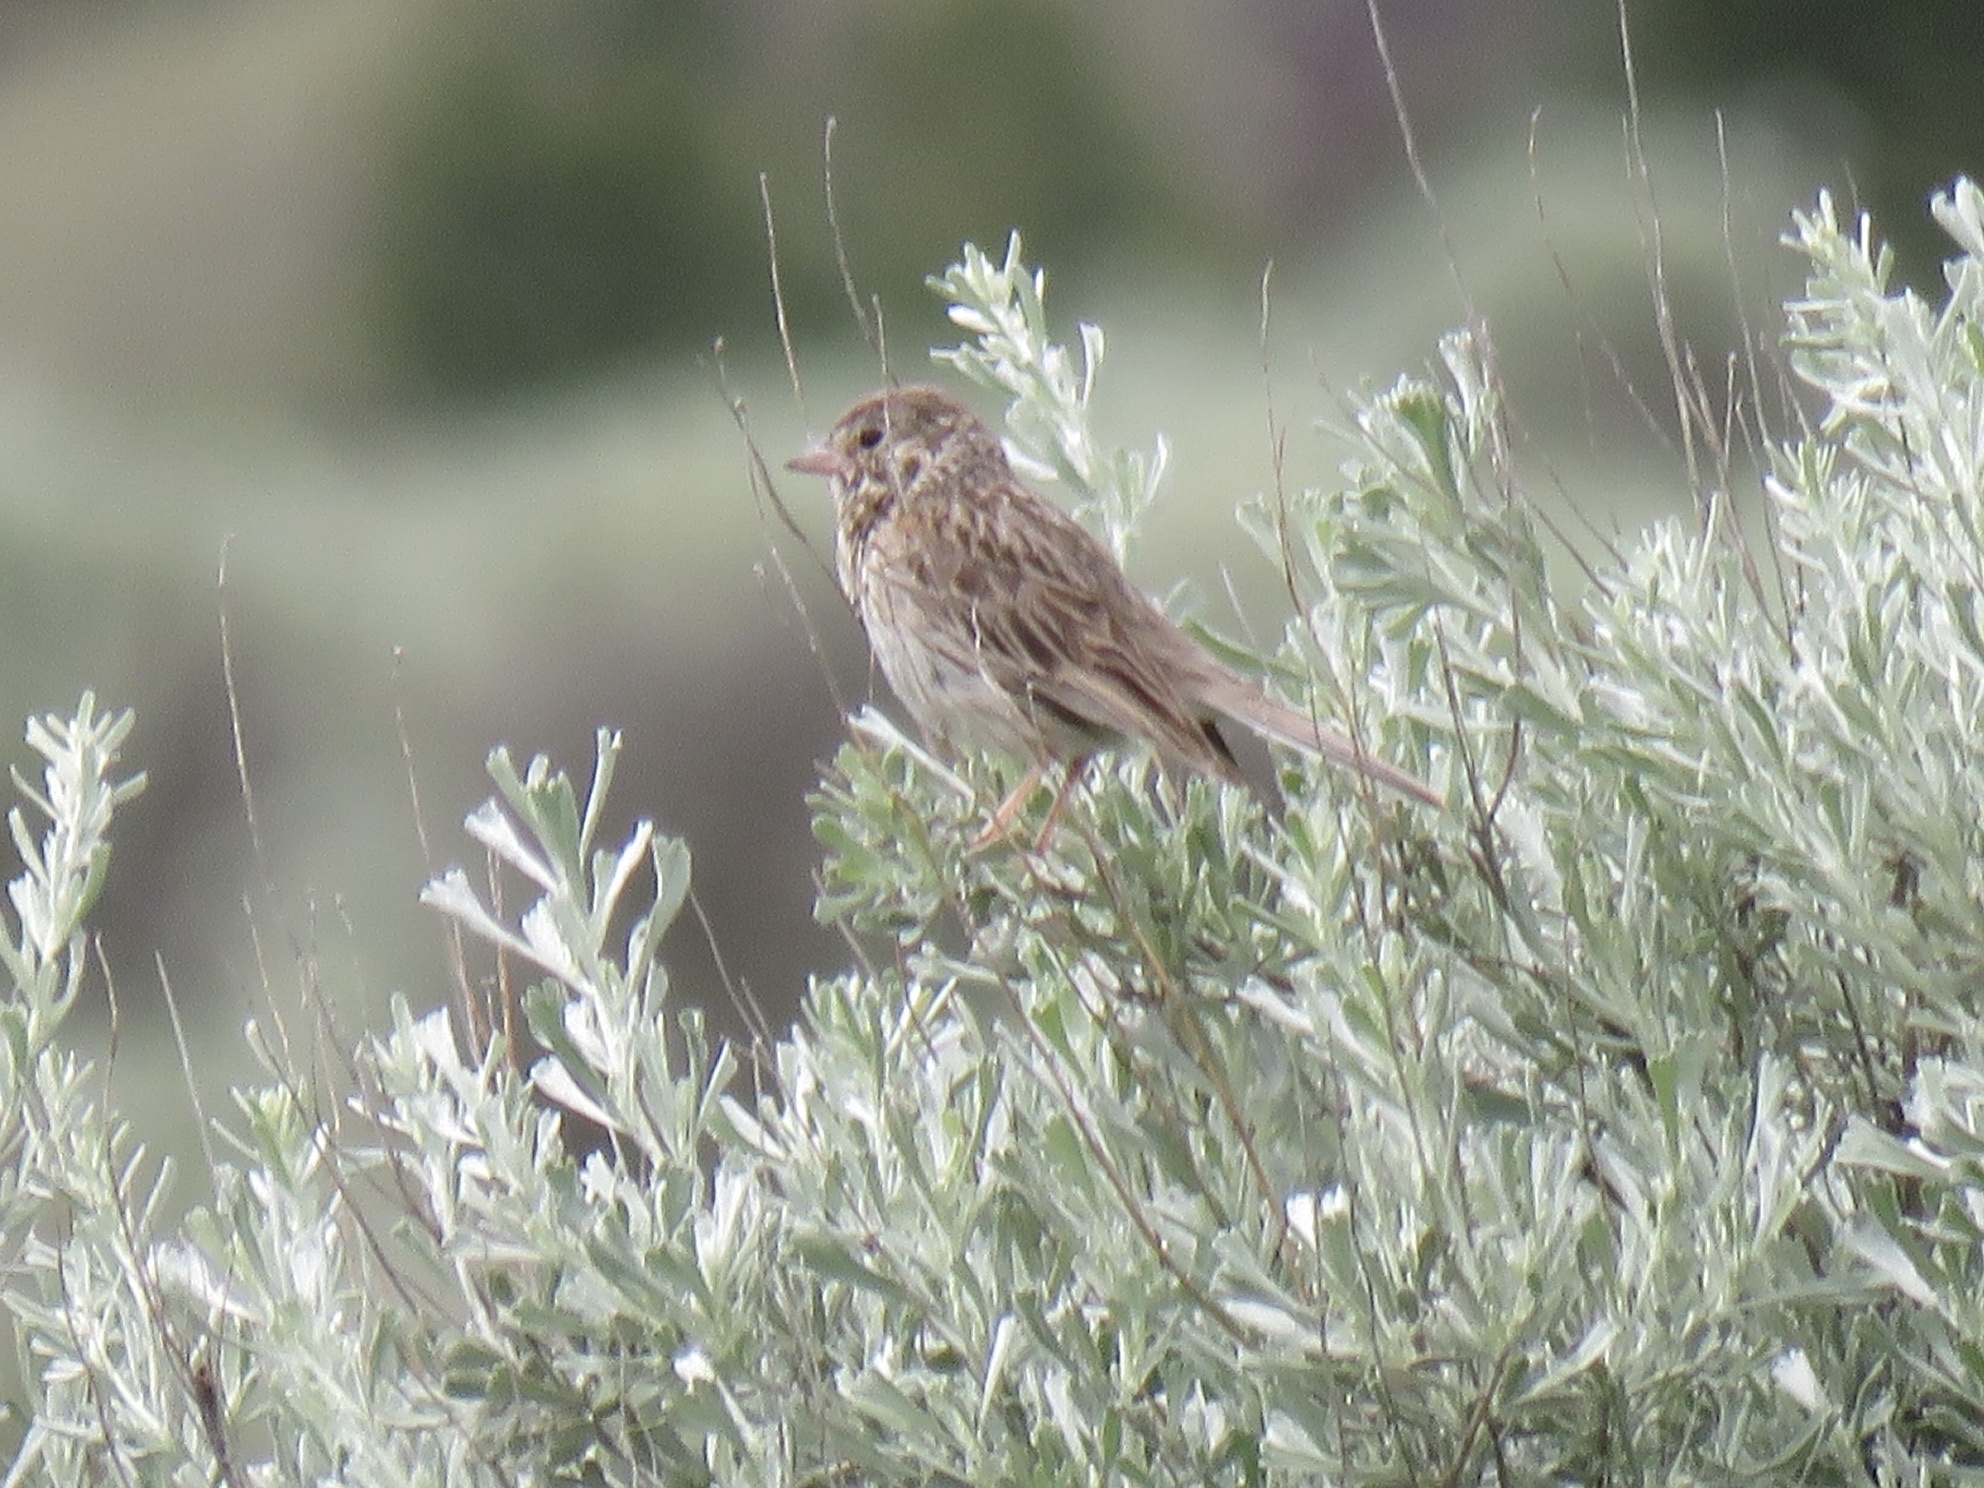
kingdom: Animalia
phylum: Chordata
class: Aves
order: Passeriformes
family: Passerellidae
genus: Pooecetes
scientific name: Pooecetes gramineus
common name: Vesper sparrow
